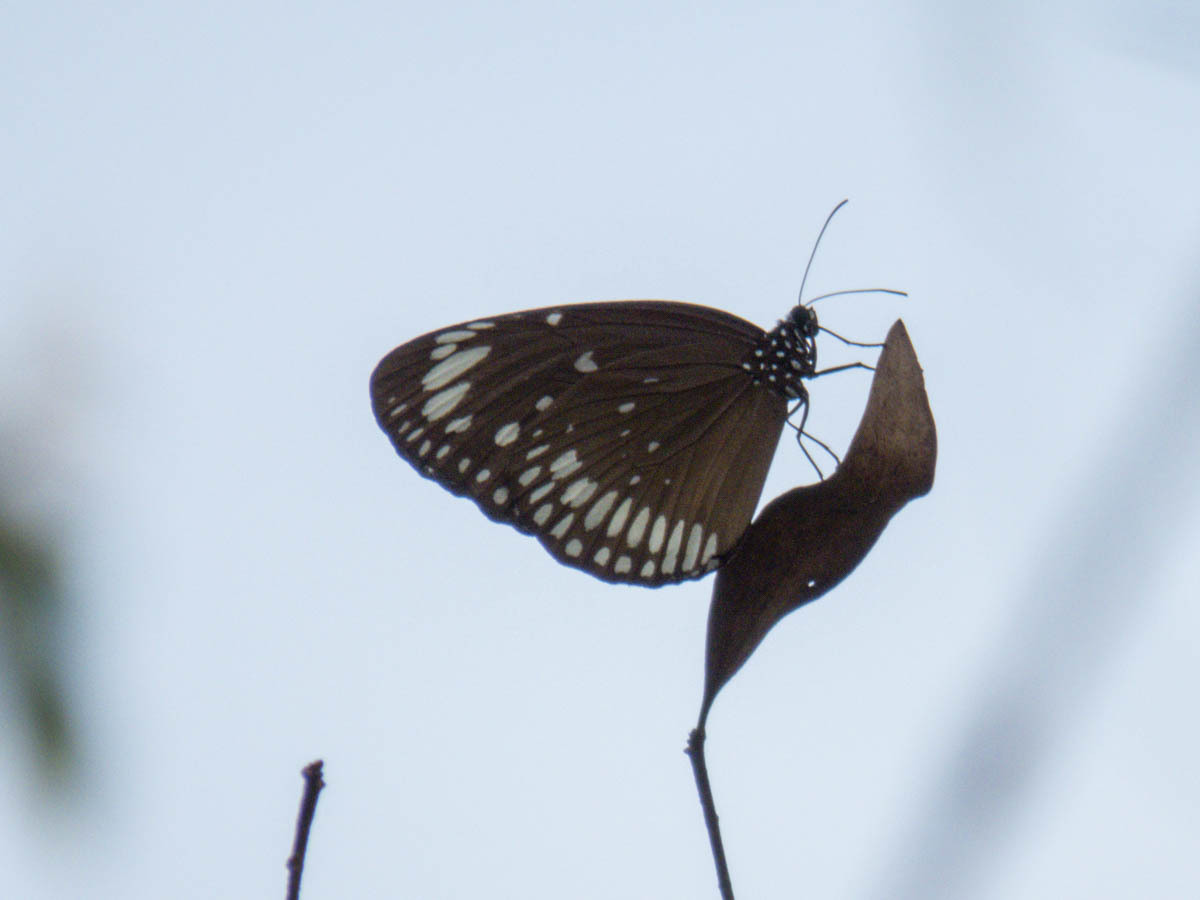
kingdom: Animalia
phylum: Arthropoda
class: Insecta
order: Lepidoptera
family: Nymphalidae
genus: Euploea
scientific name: Euploea crameri
